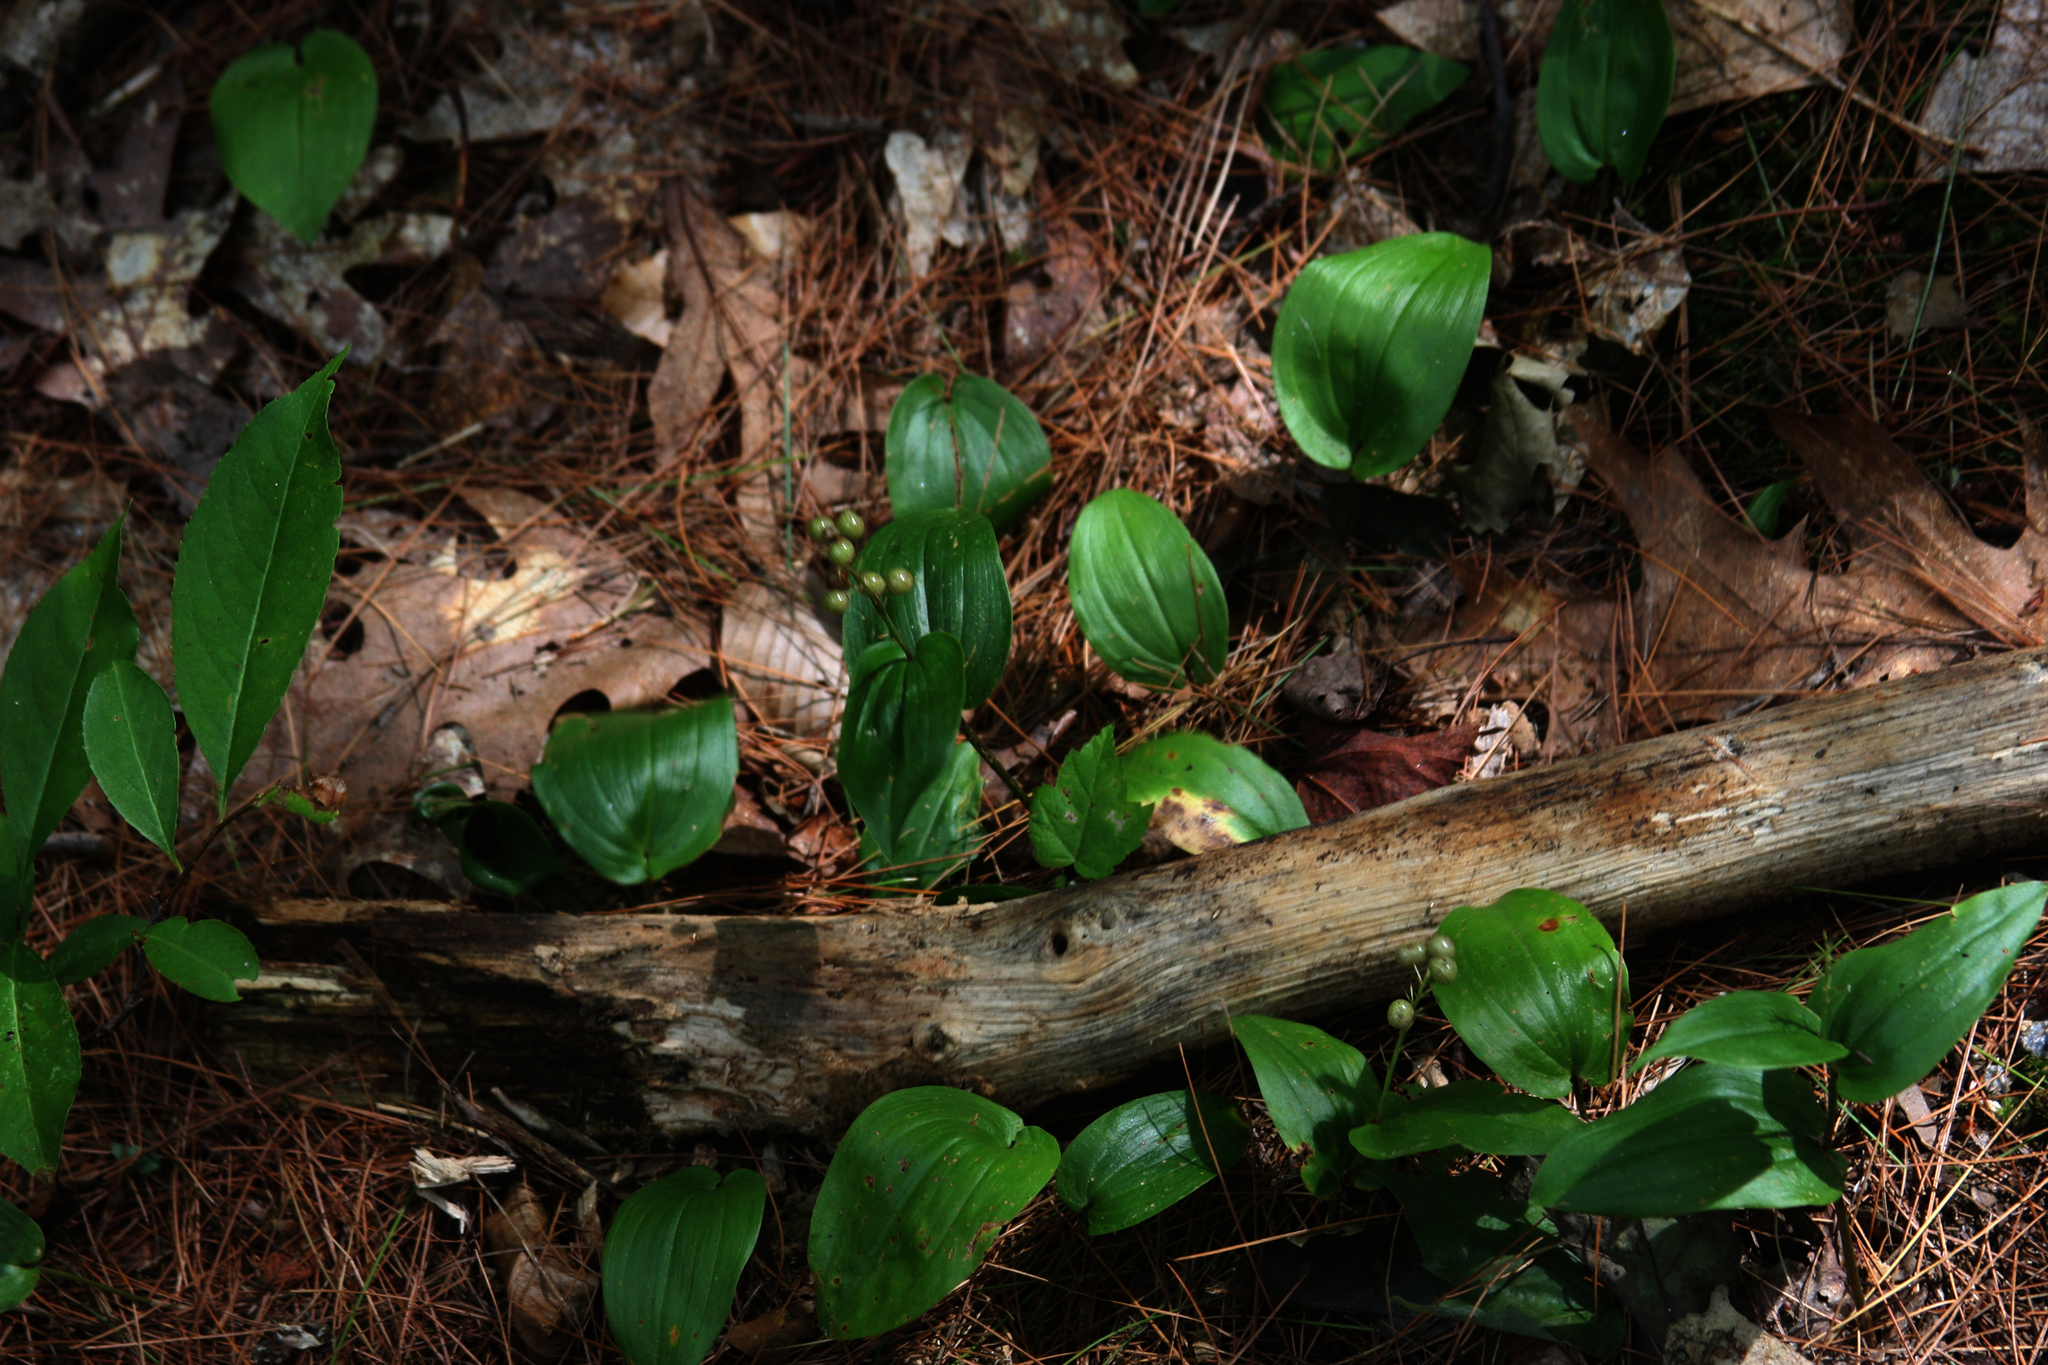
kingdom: Plantae
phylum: Tracheophyta
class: Liliopsida
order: Asparagales
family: Asparagaceae
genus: Maianthemum
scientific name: Maianthemum canadense
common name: False lily-of-the-valley
